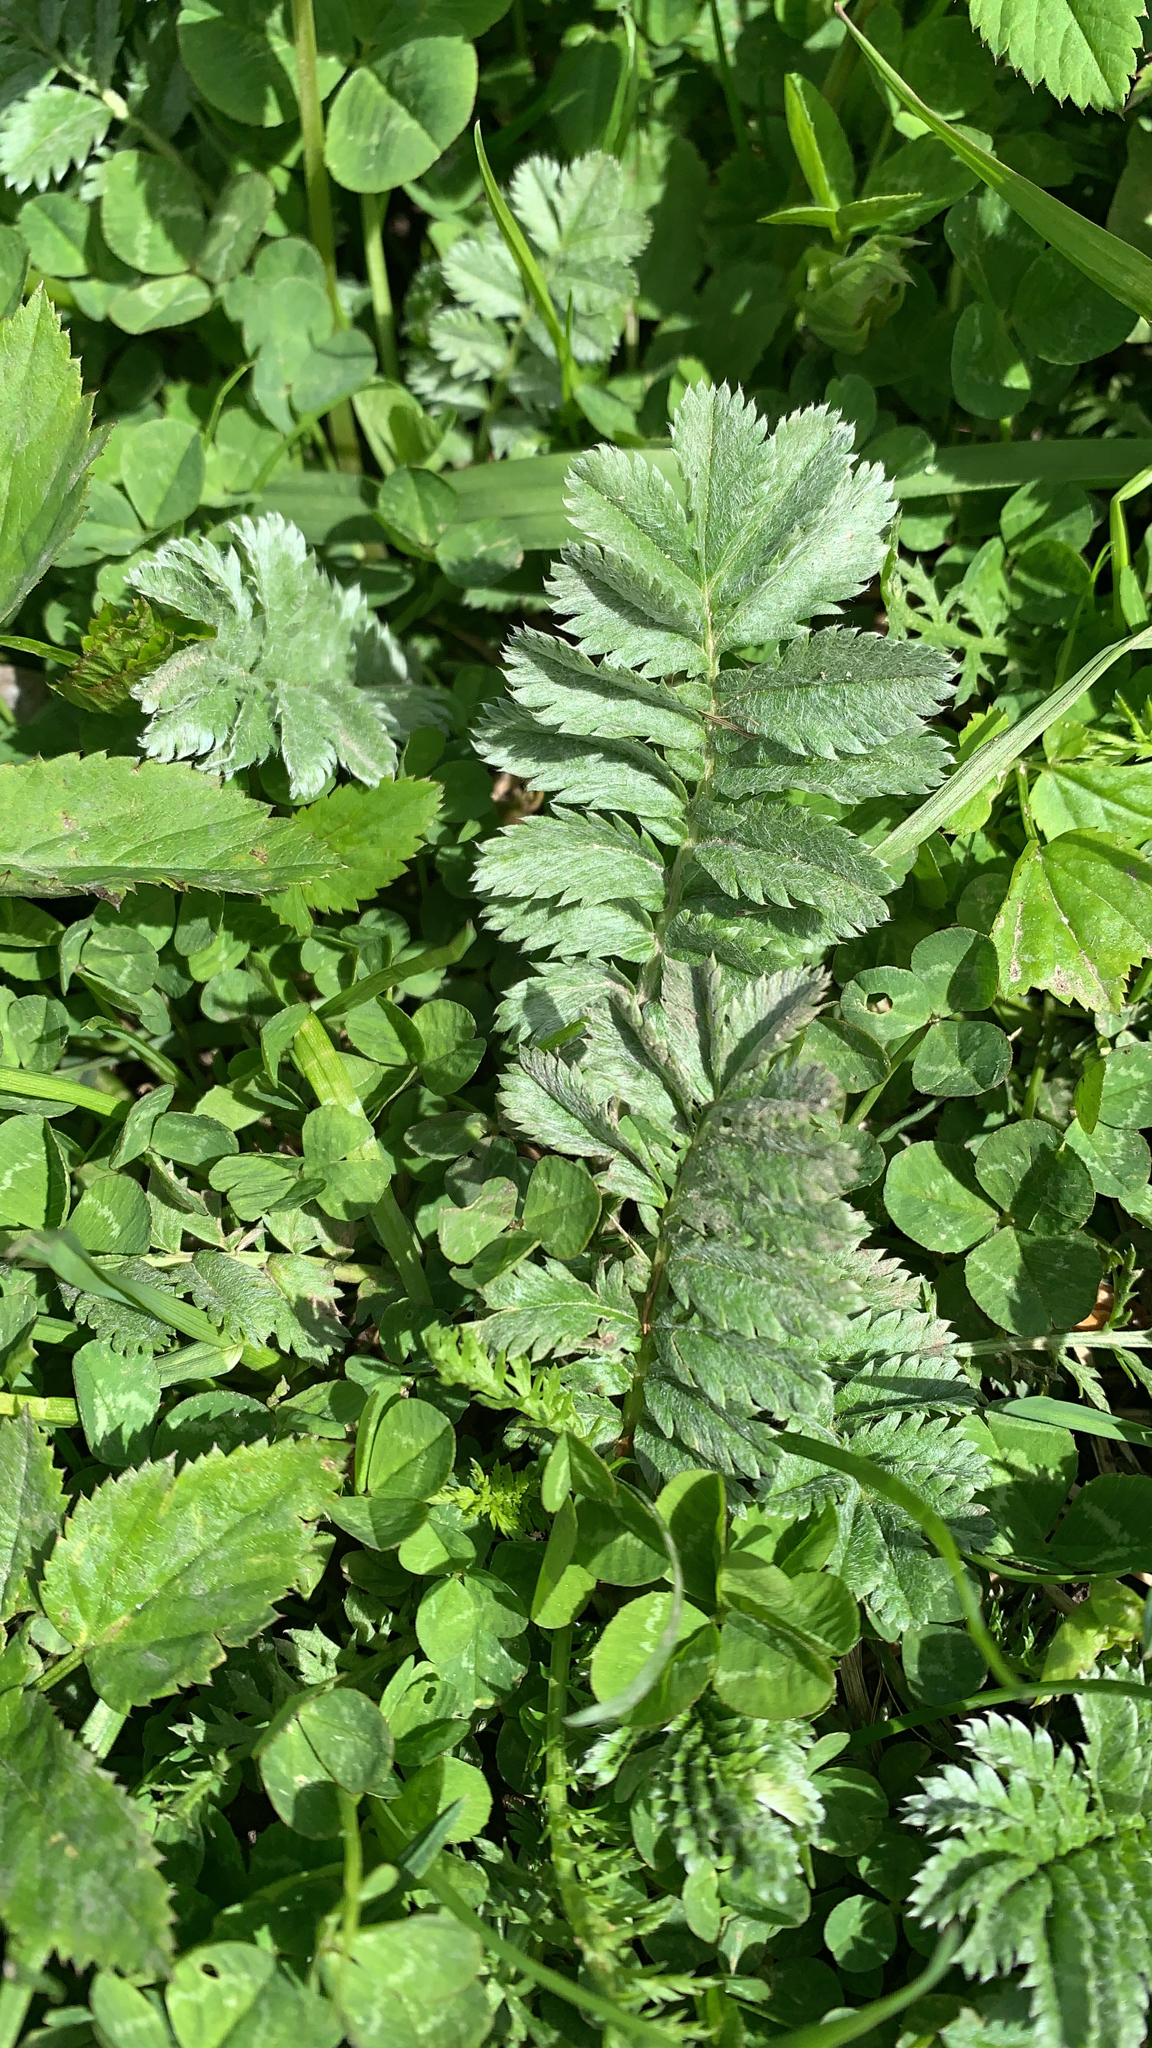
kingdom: Plantae
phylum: Tracheophyta
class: Magnoliopsida
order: Rosales
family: Rosaceae
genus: Argentina
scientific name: Argentina anserina
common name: Common silverweed
